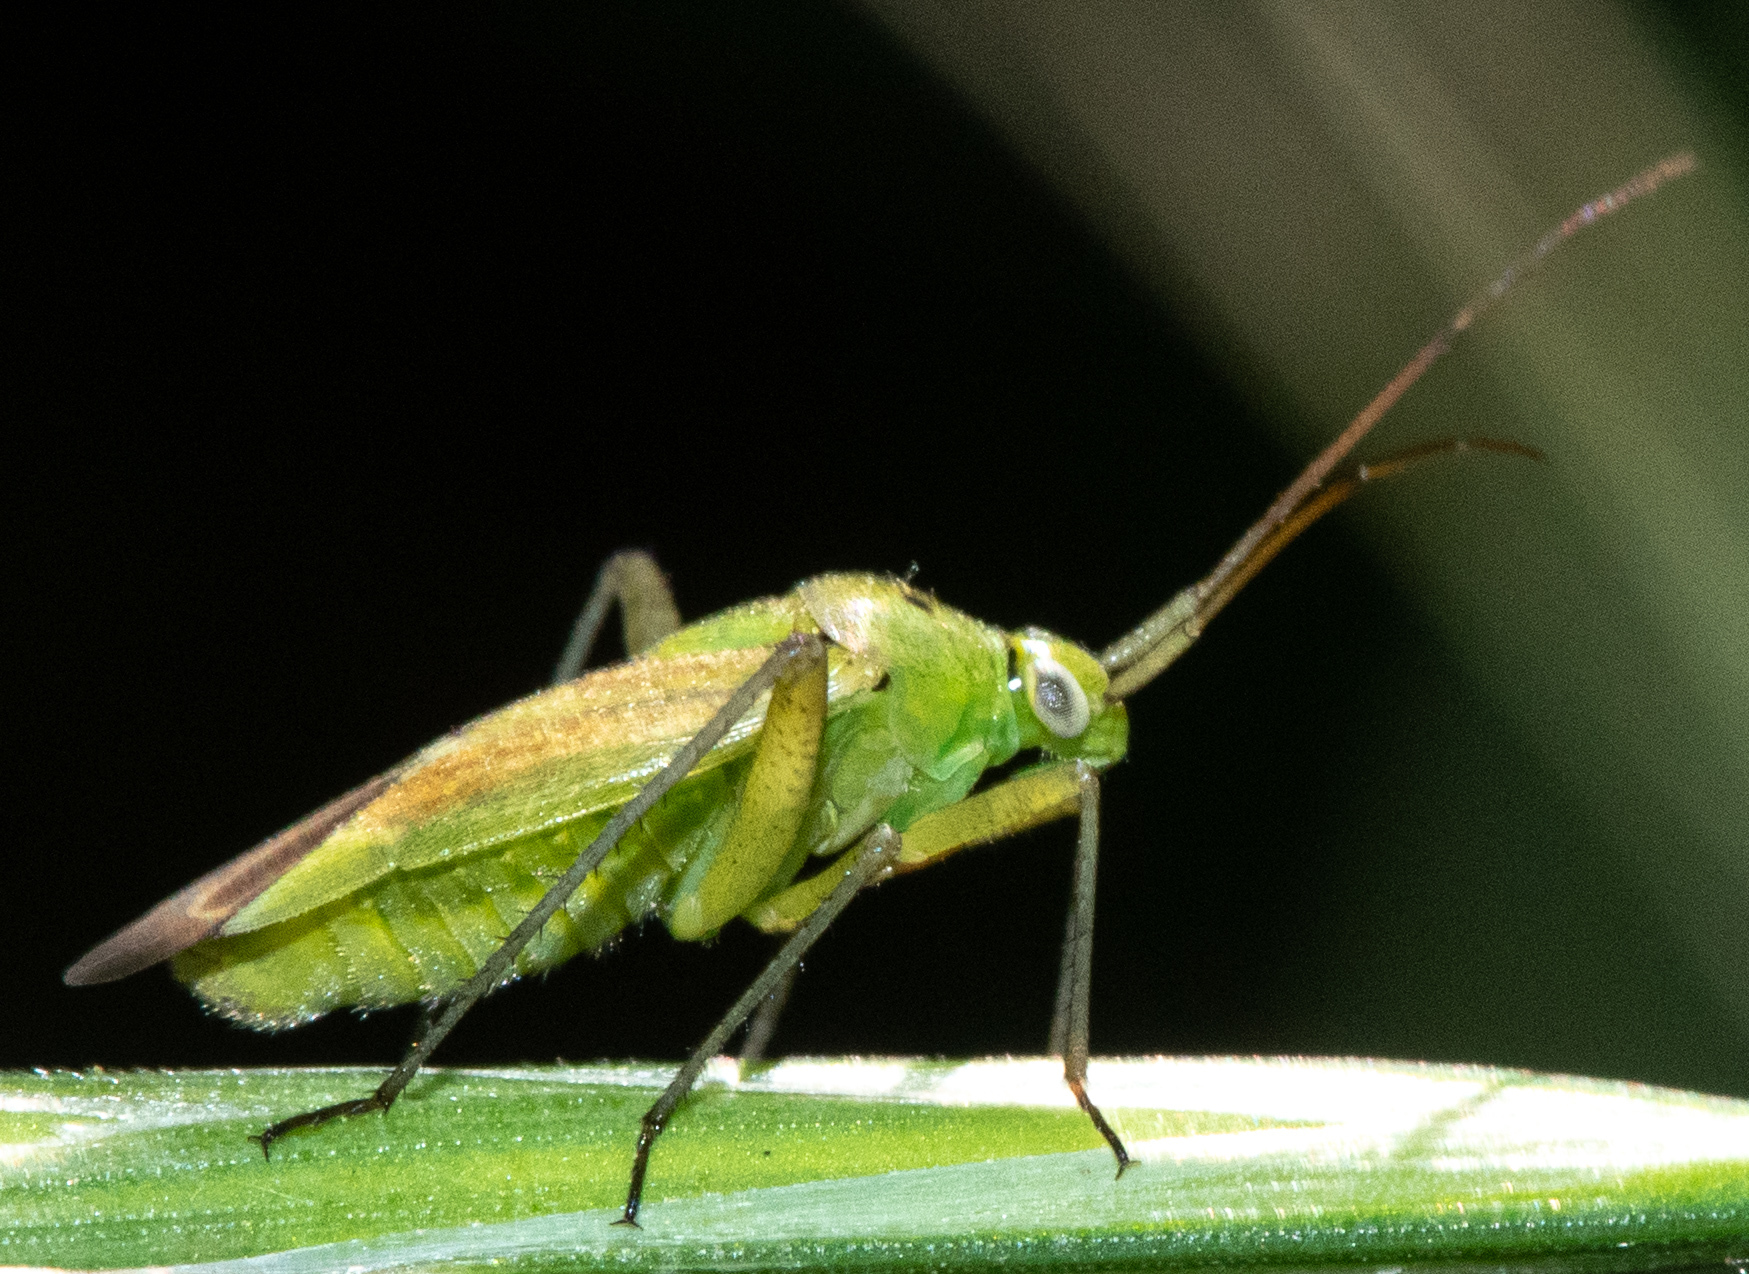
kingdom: Animalia
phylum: Arthropoda
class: Insecta
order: Hemiptera
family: Miridae
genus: Closterotomus
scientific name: Closterotomus norvegicus
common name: Plant bug
